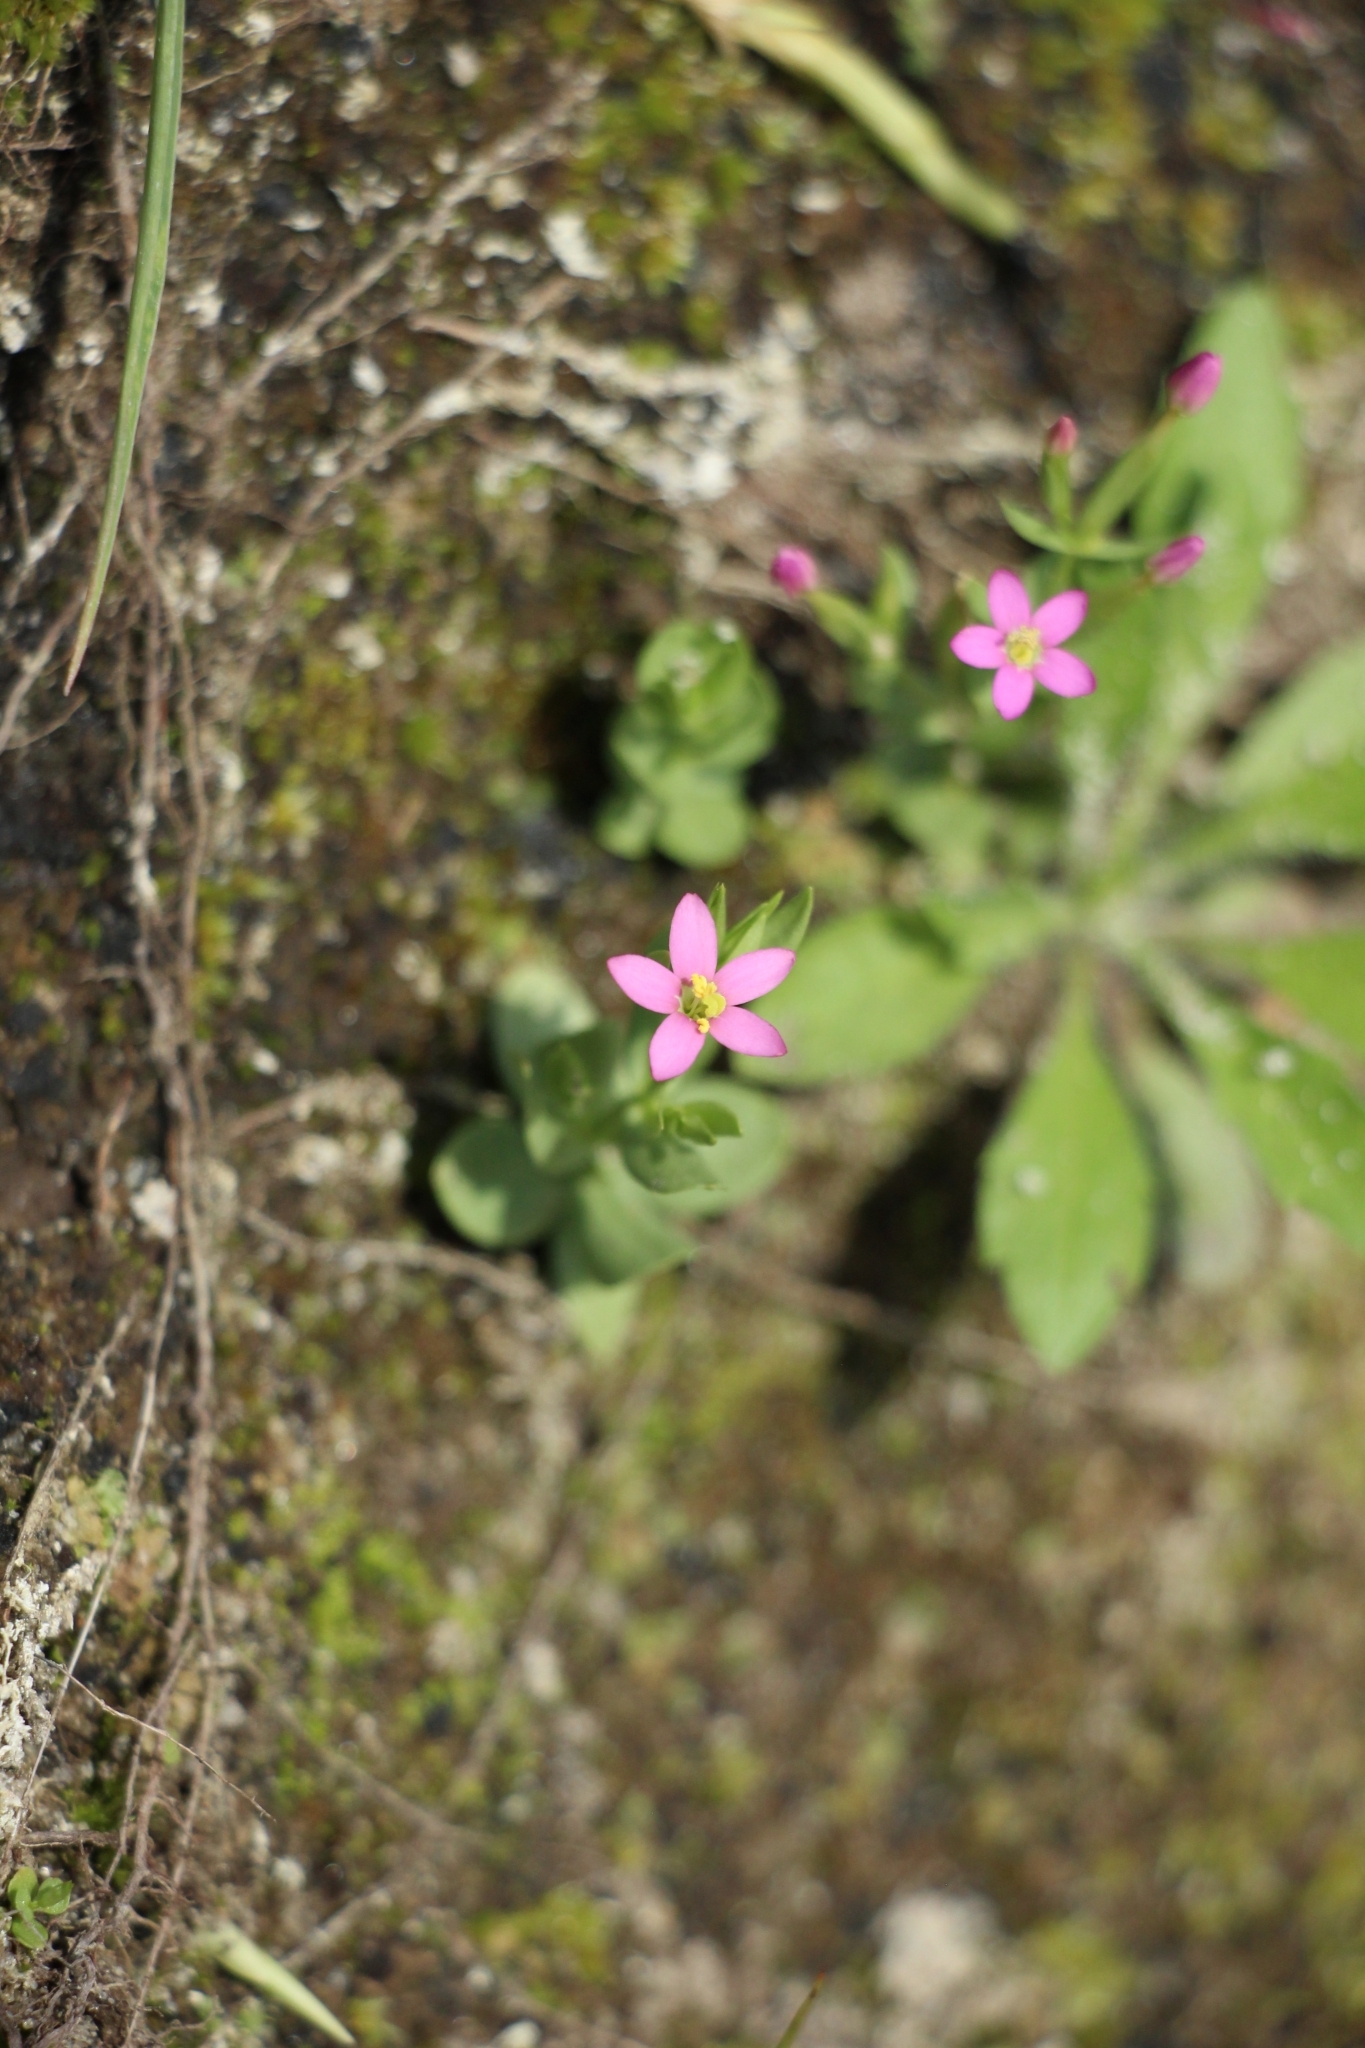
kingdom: Plantae
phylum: Tracheophyta
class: Magnoliopsida
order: Gentianales
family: Gentianaceae
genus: Centaurium
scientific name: Centaurium pulchellum
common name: Lesser centaury
